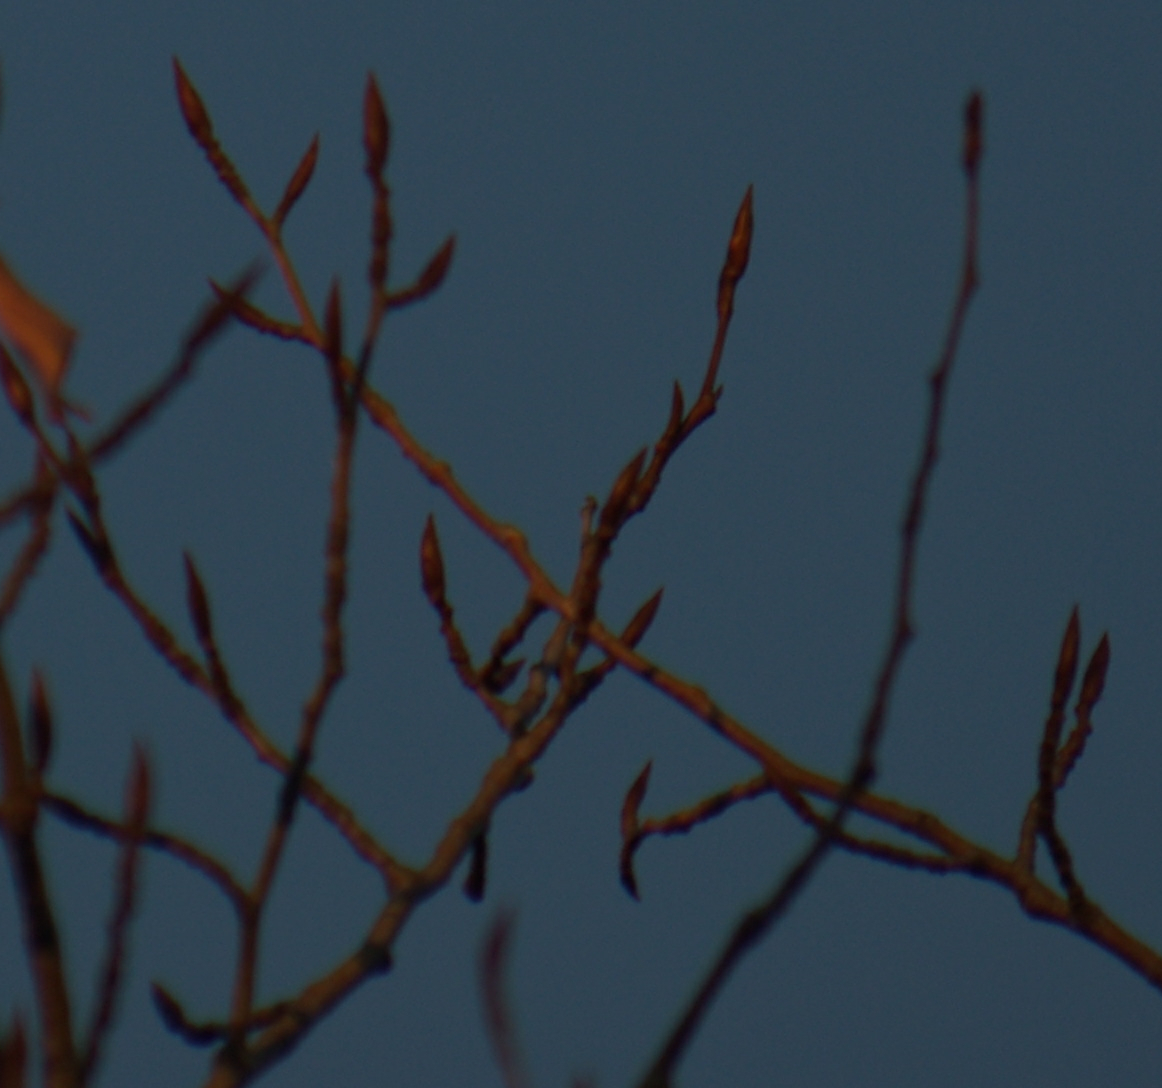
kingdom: Plantae
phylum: Tracheophyta
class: Magnoliopsida
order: Malpighiales
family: Salicaceae
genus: Populus
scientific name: Populus balsamifera
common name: Balsam poplar
